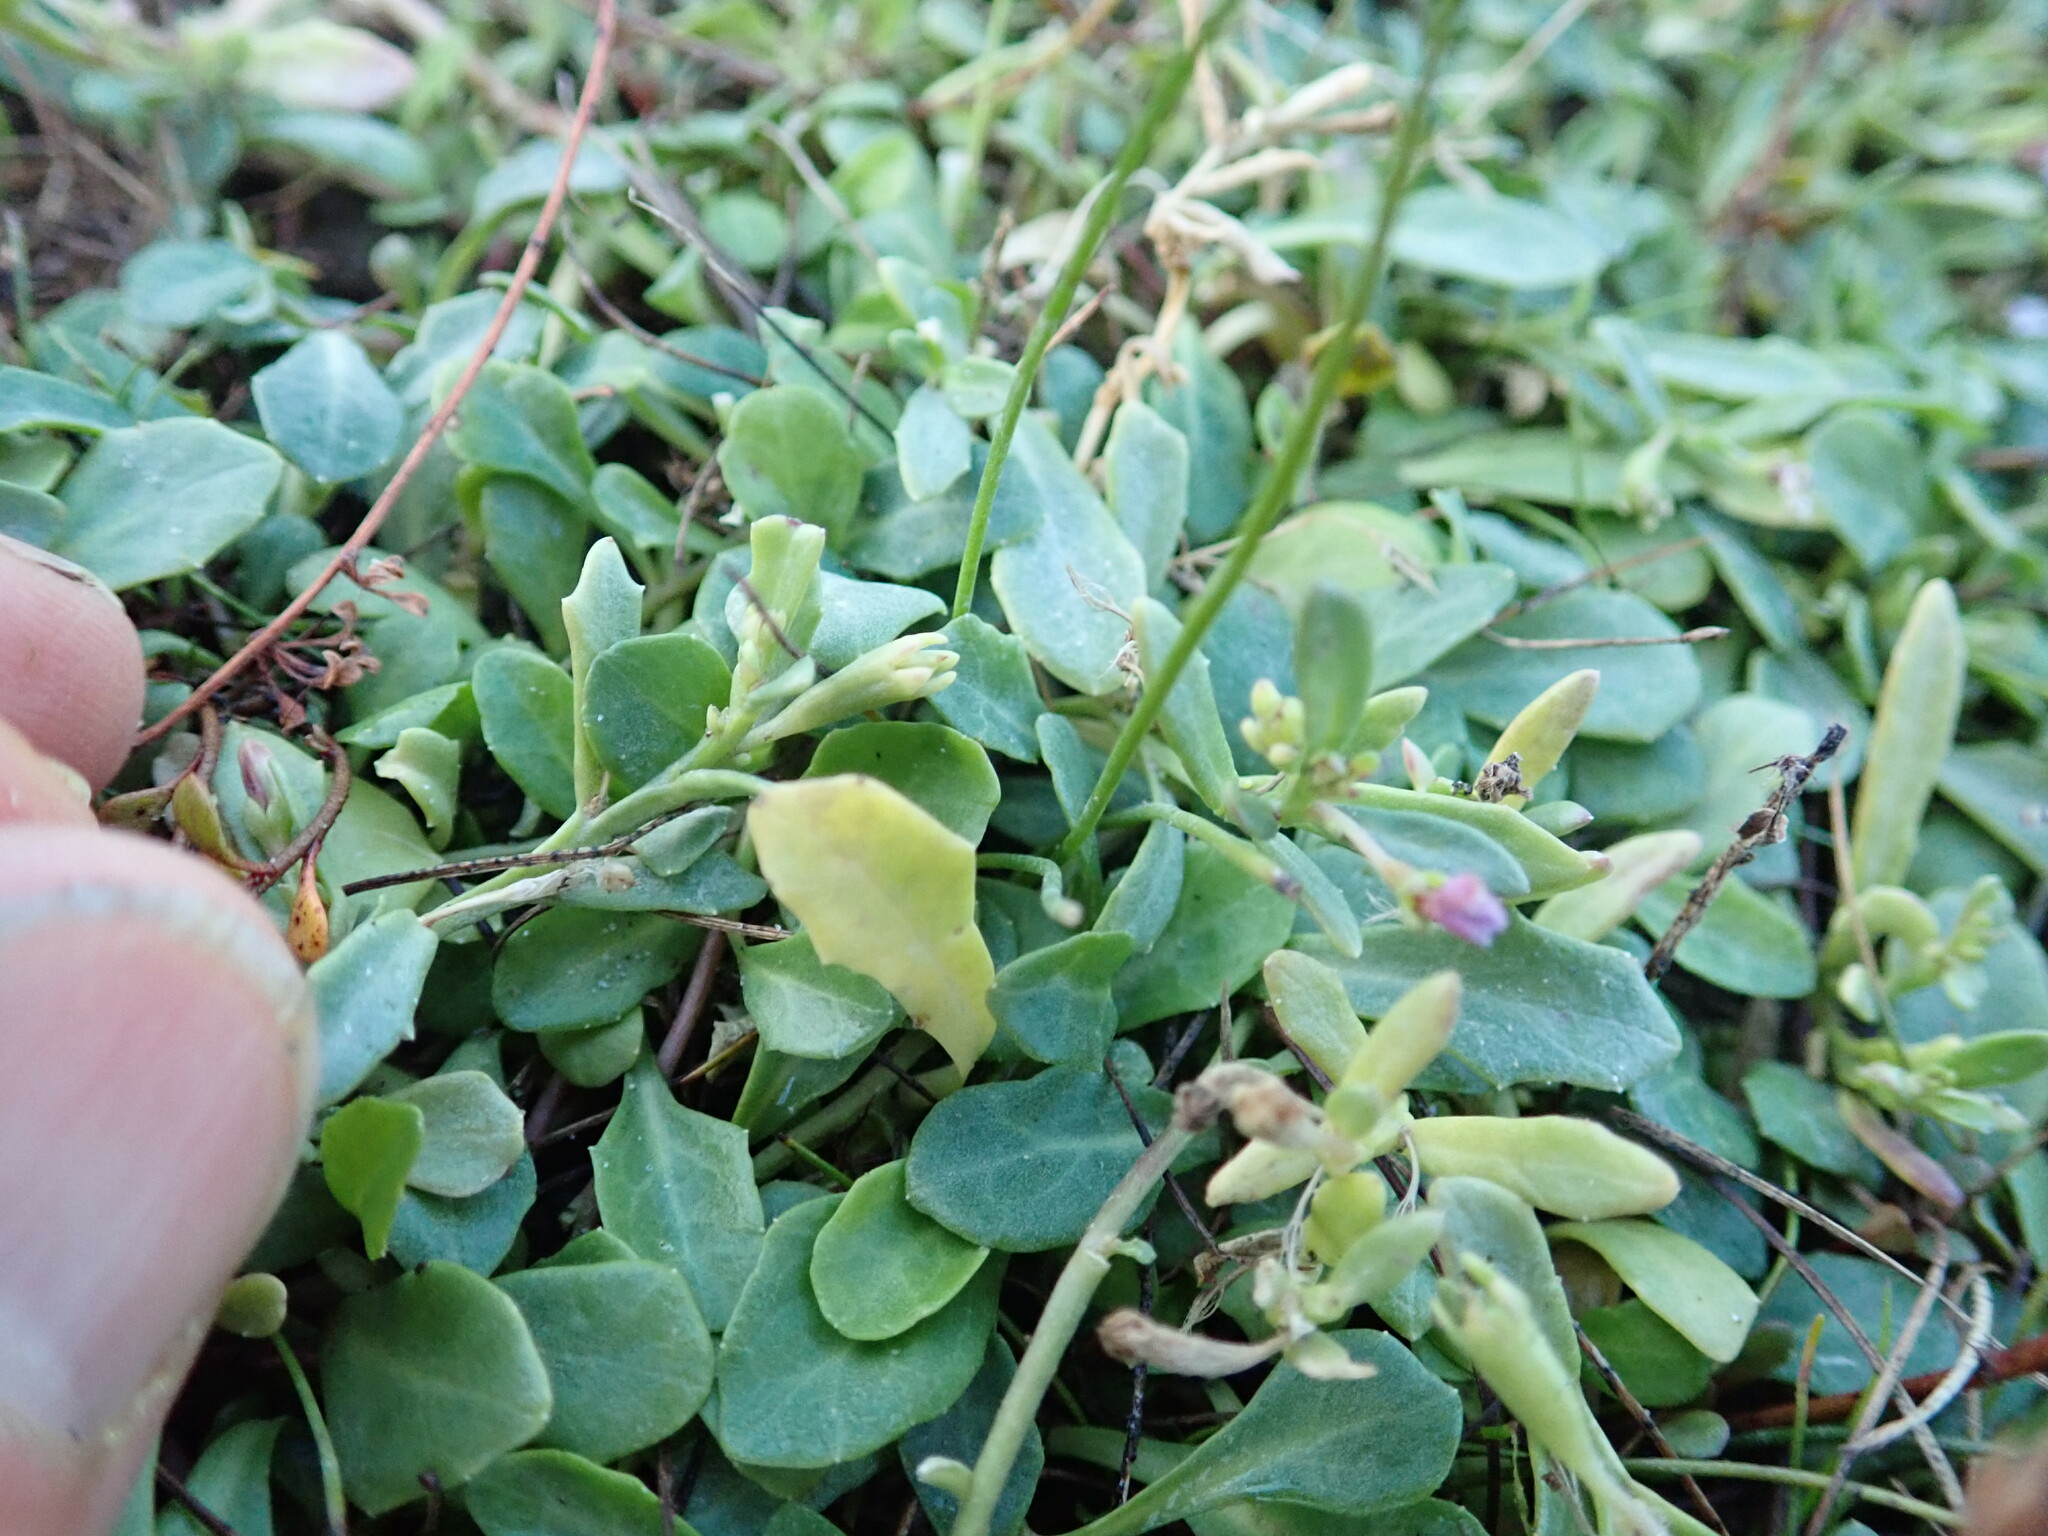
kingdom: Plantae
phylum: Tracheophyta
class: Magnoliopsida
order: Asterales
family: Campanulaceae
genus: Lobelia
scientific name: Lobelia anceps
